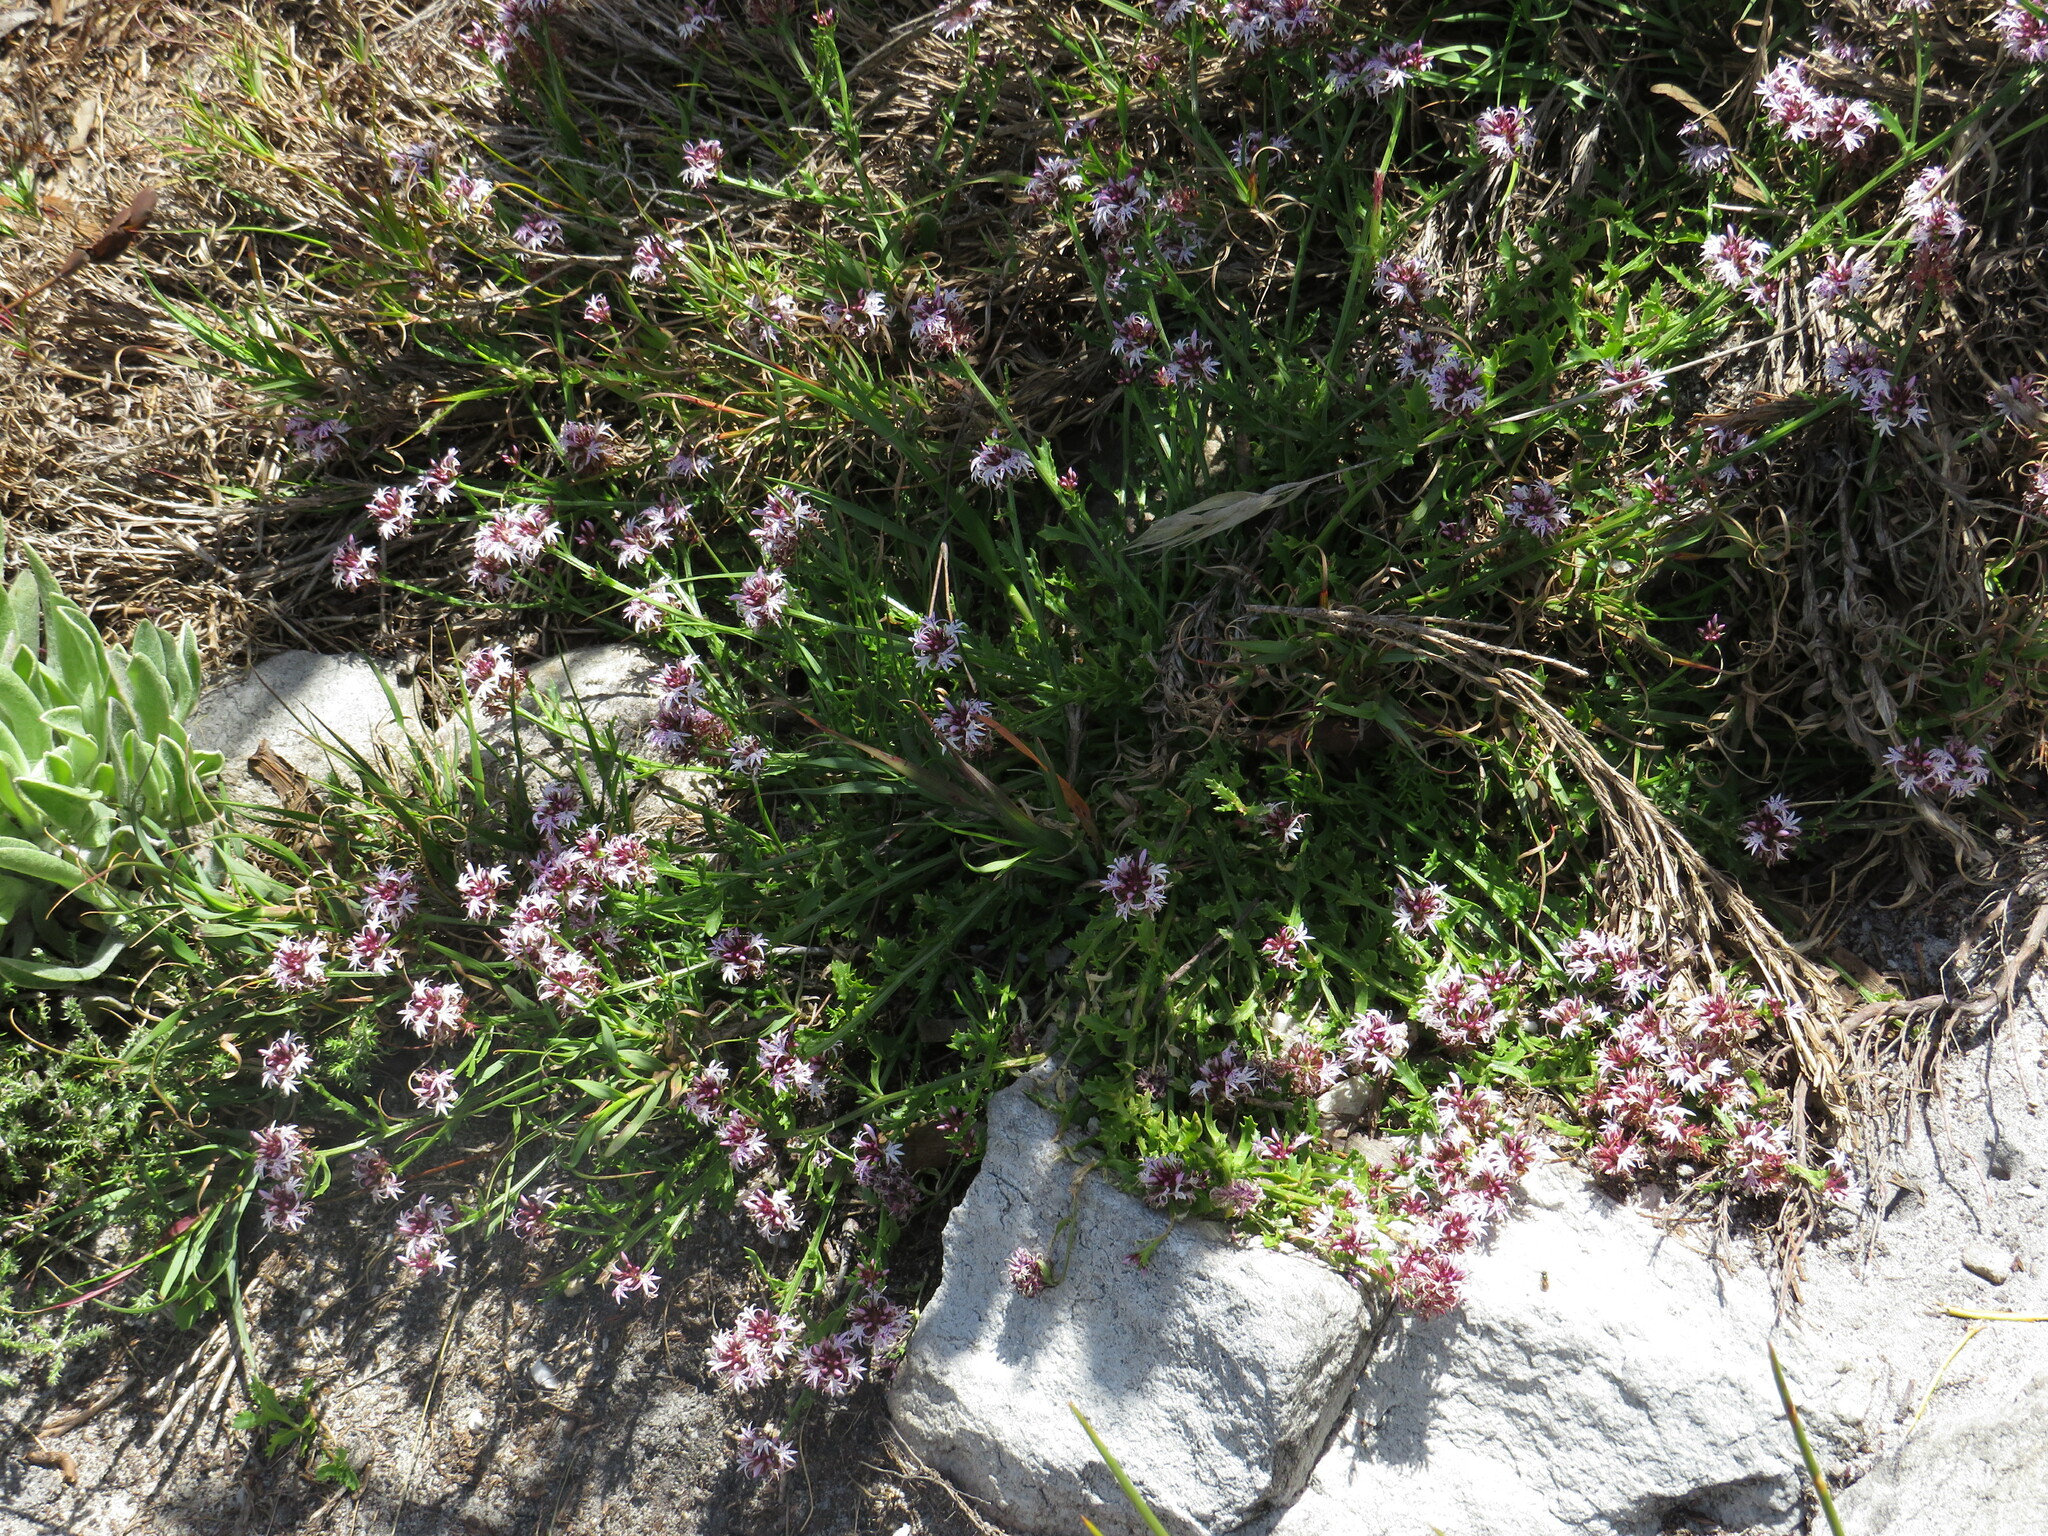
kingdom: Plantae
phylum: Tracheophyta
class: Magnoliopsida
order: Asterales
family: Campanulaceae
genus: Lobelia
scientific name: Lobelia jasionoides
